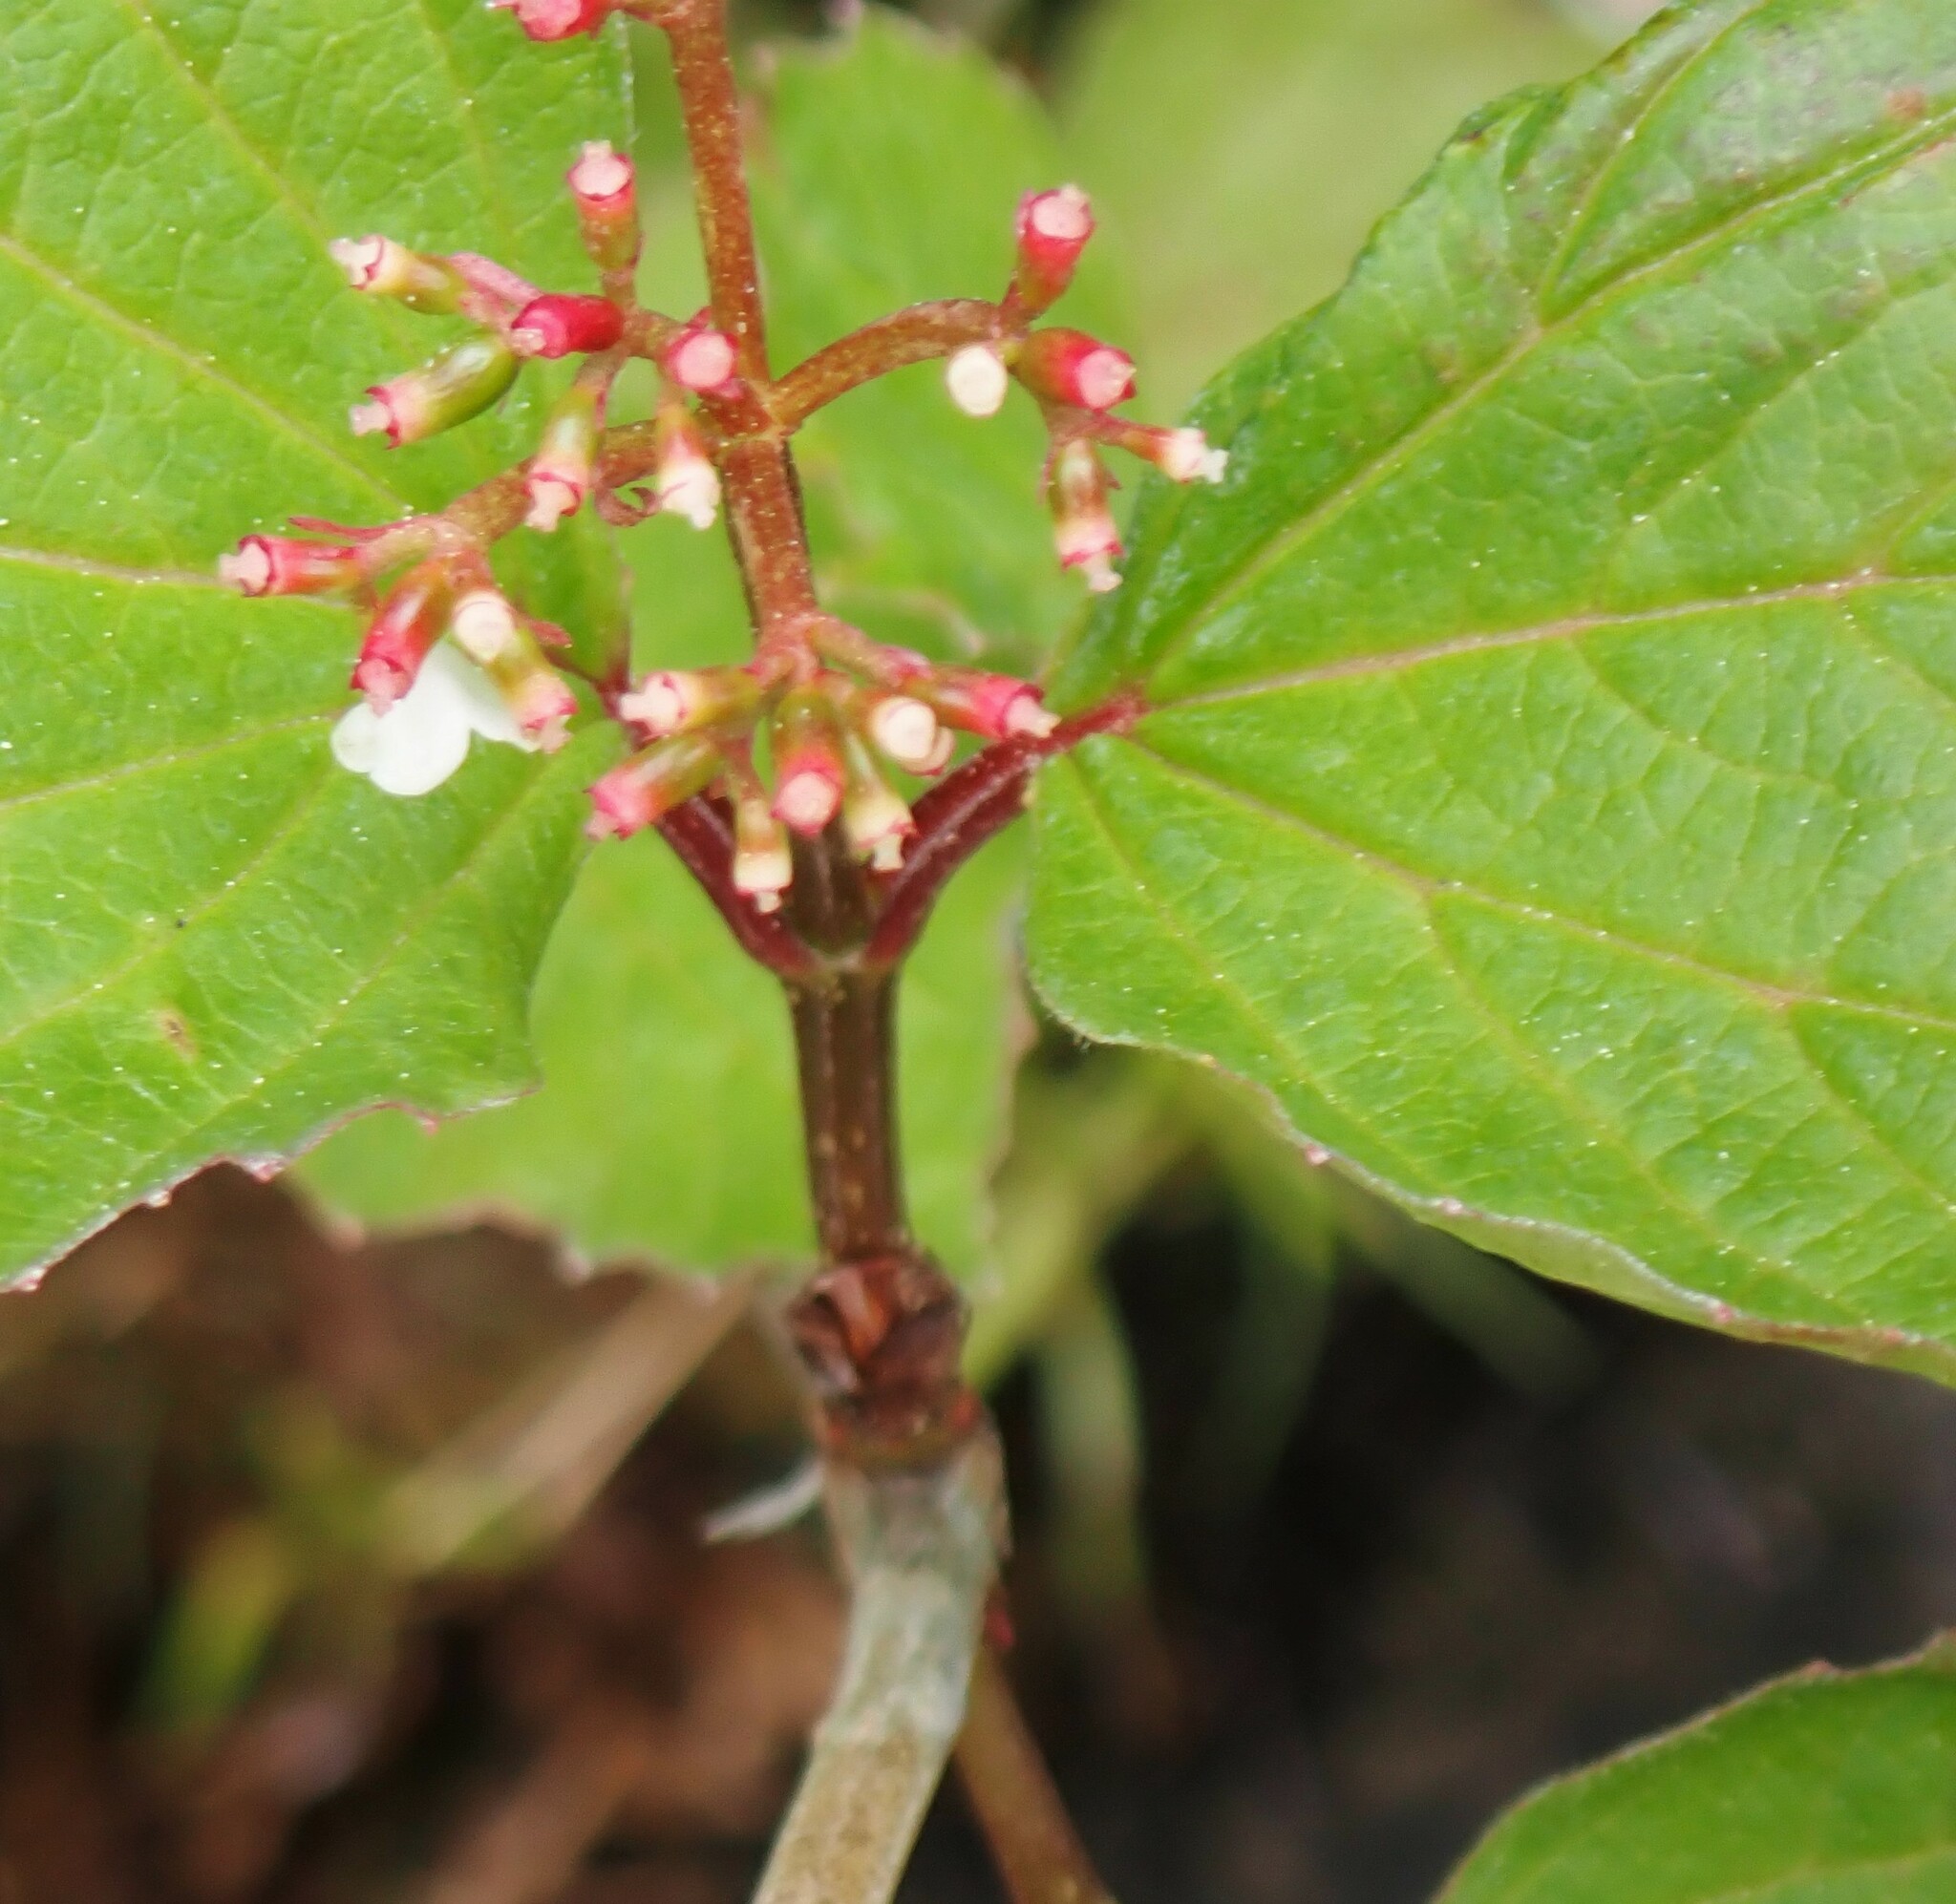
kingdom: Plantae
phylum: Tracheophyta
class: Magnoliopsida
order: Dipsacales
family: Viburnaceae
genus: Viburnum
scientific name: Viburnum edule
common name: Mooseberry
